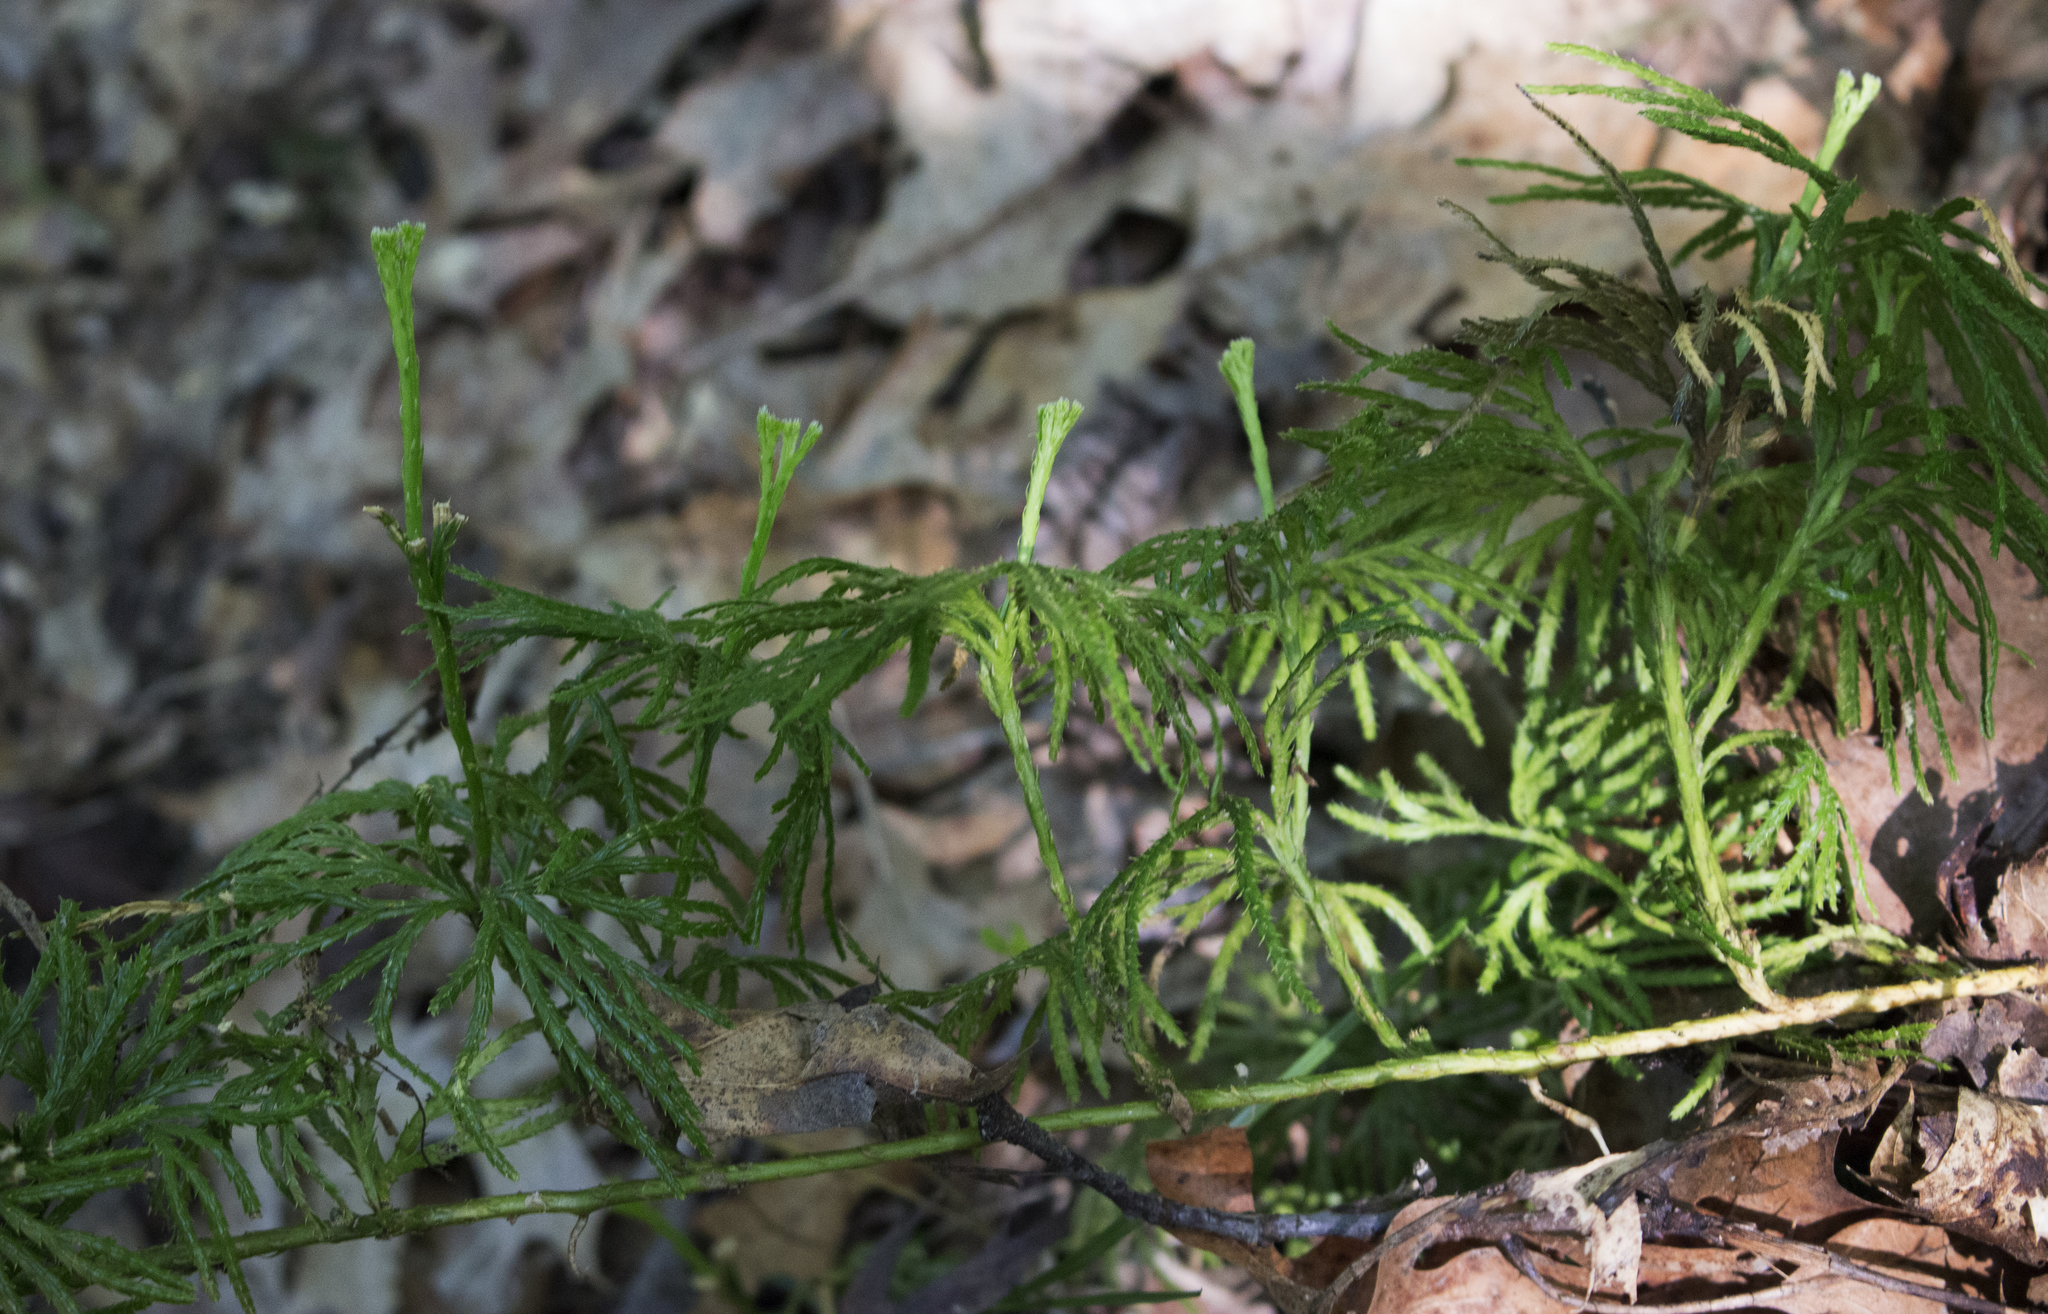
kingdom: Plantae
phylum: Tracheophyta
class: Lycopodiopsida
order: Lycopodiales
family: Lycopodiaceae
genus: Diphasiastrum
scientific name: Diphasiastrum digitatum
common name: Southern running-pine
